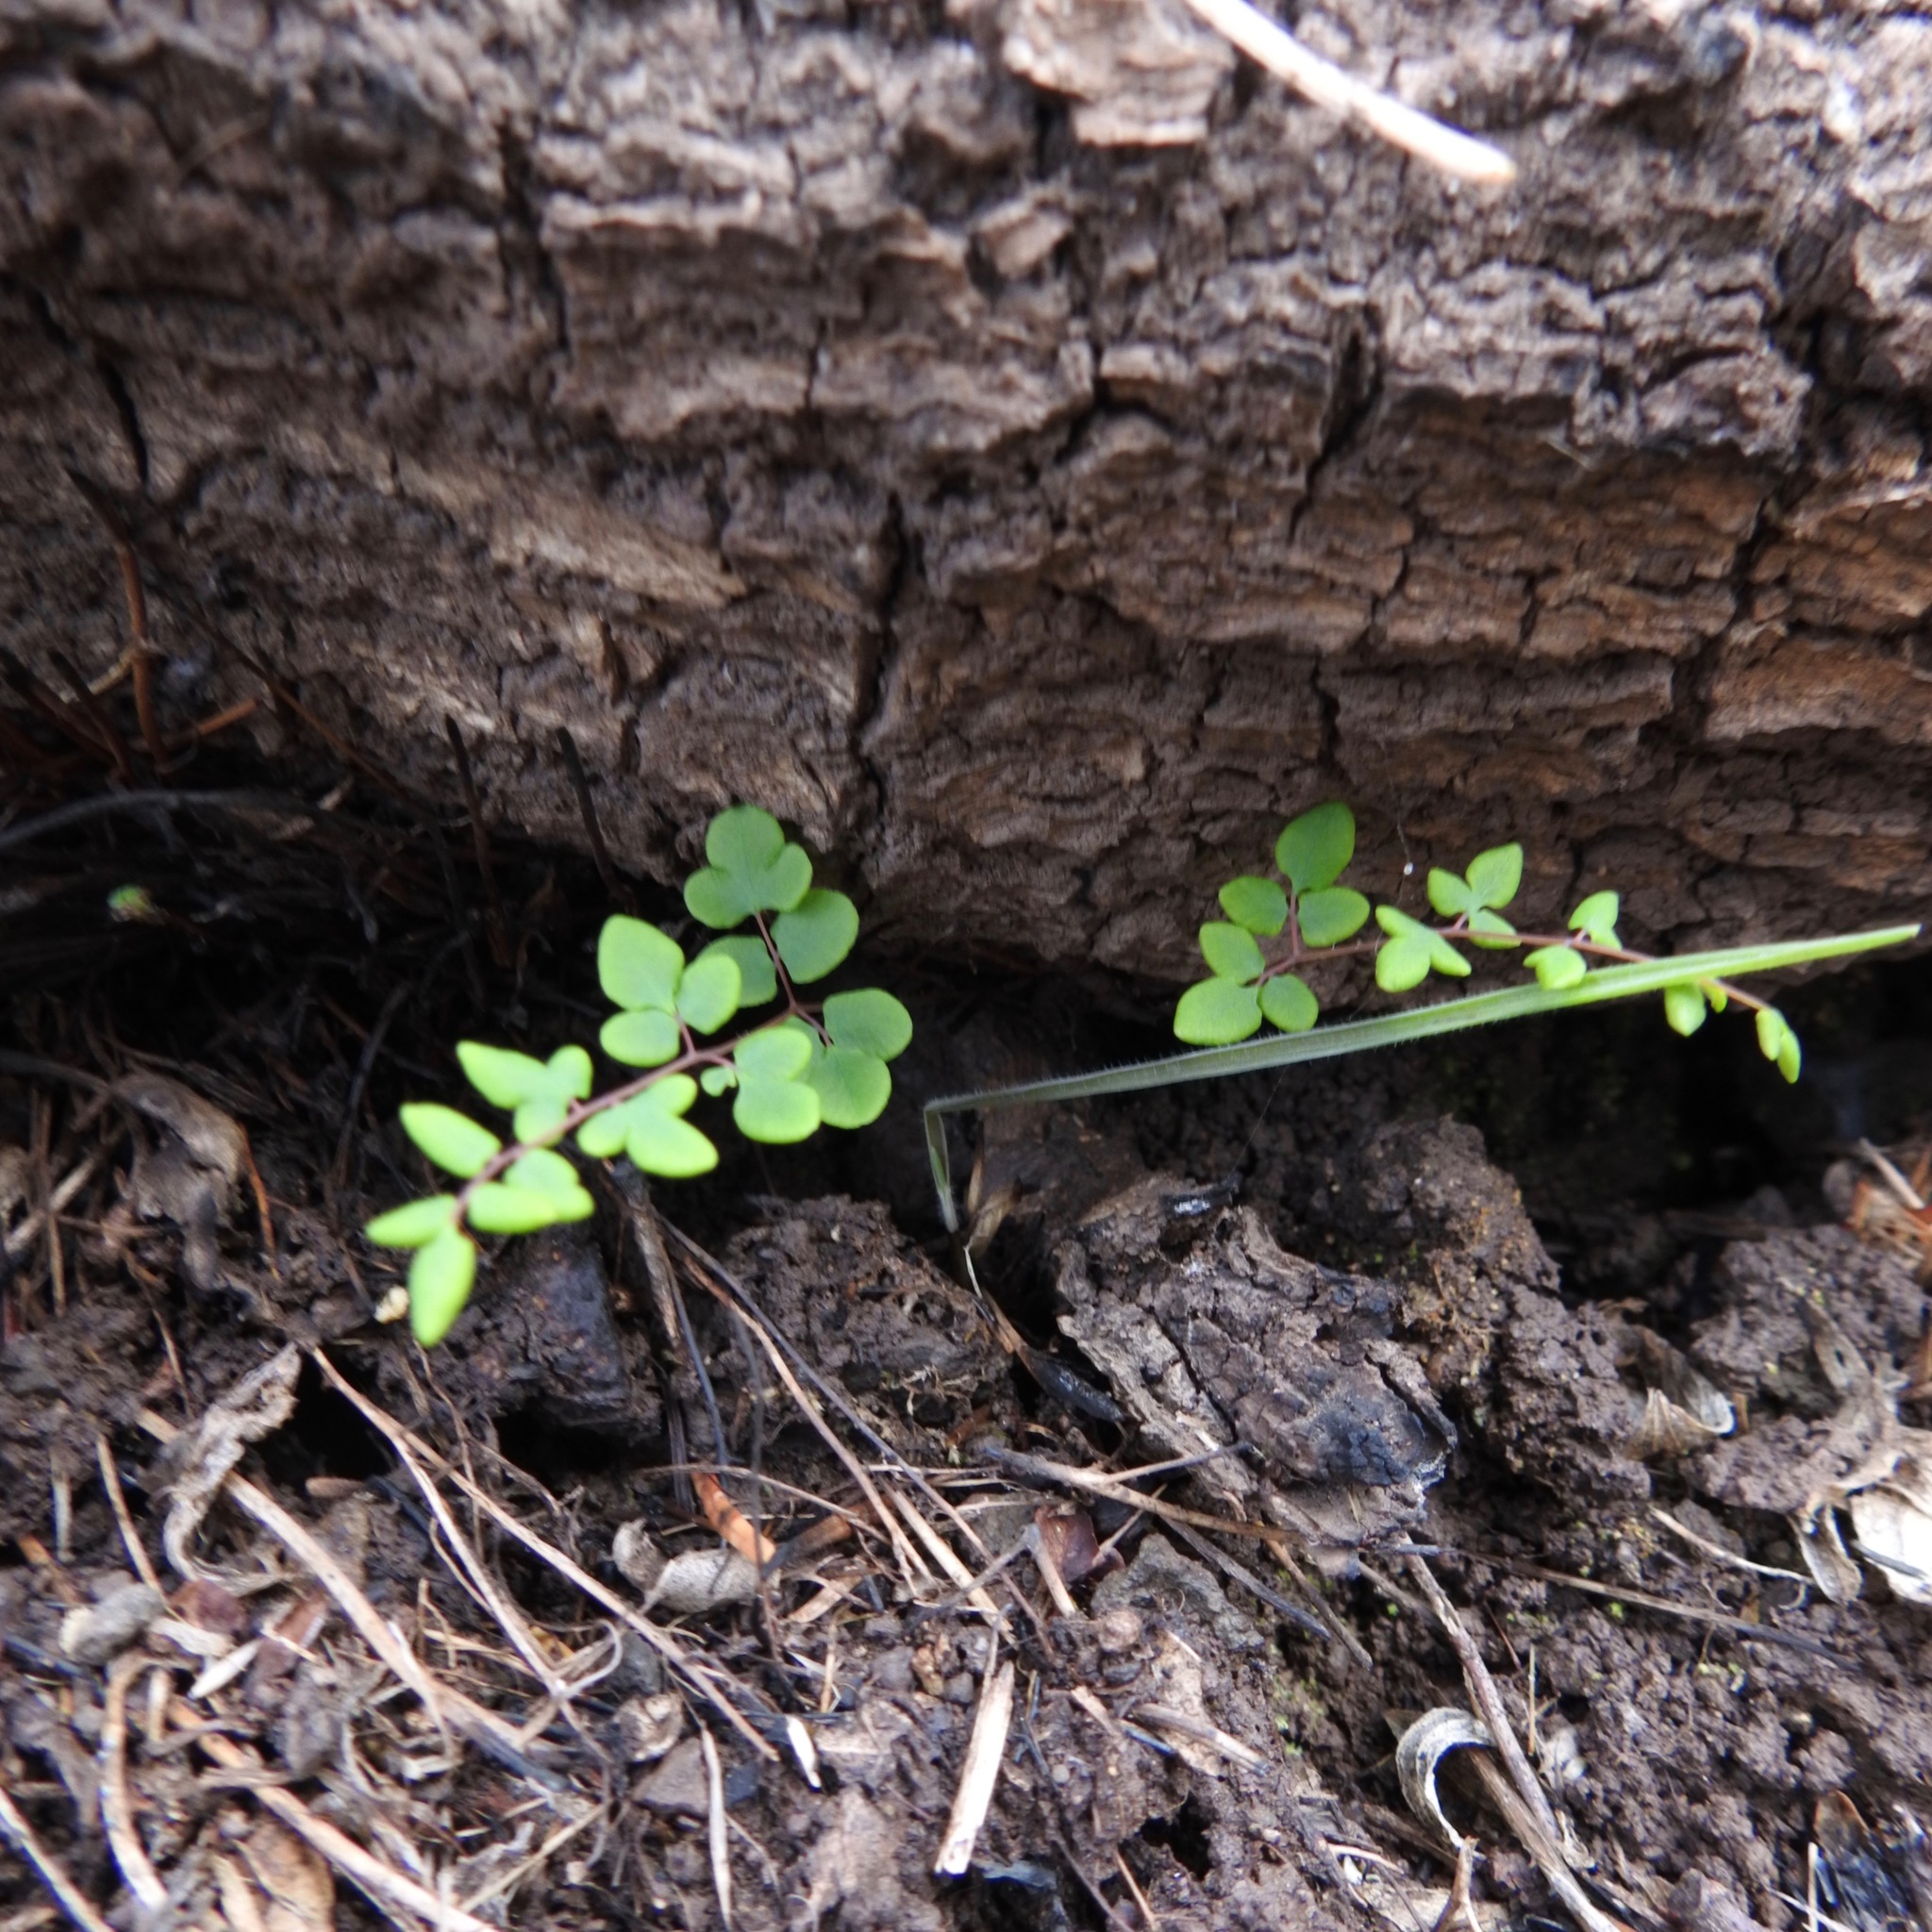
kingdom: Plantae
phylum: Tracheophyta
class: Polypodiopsida
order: Polypodiales
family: Pteridaceae
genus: Pellaea
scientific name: Pellaea andromedifolia
